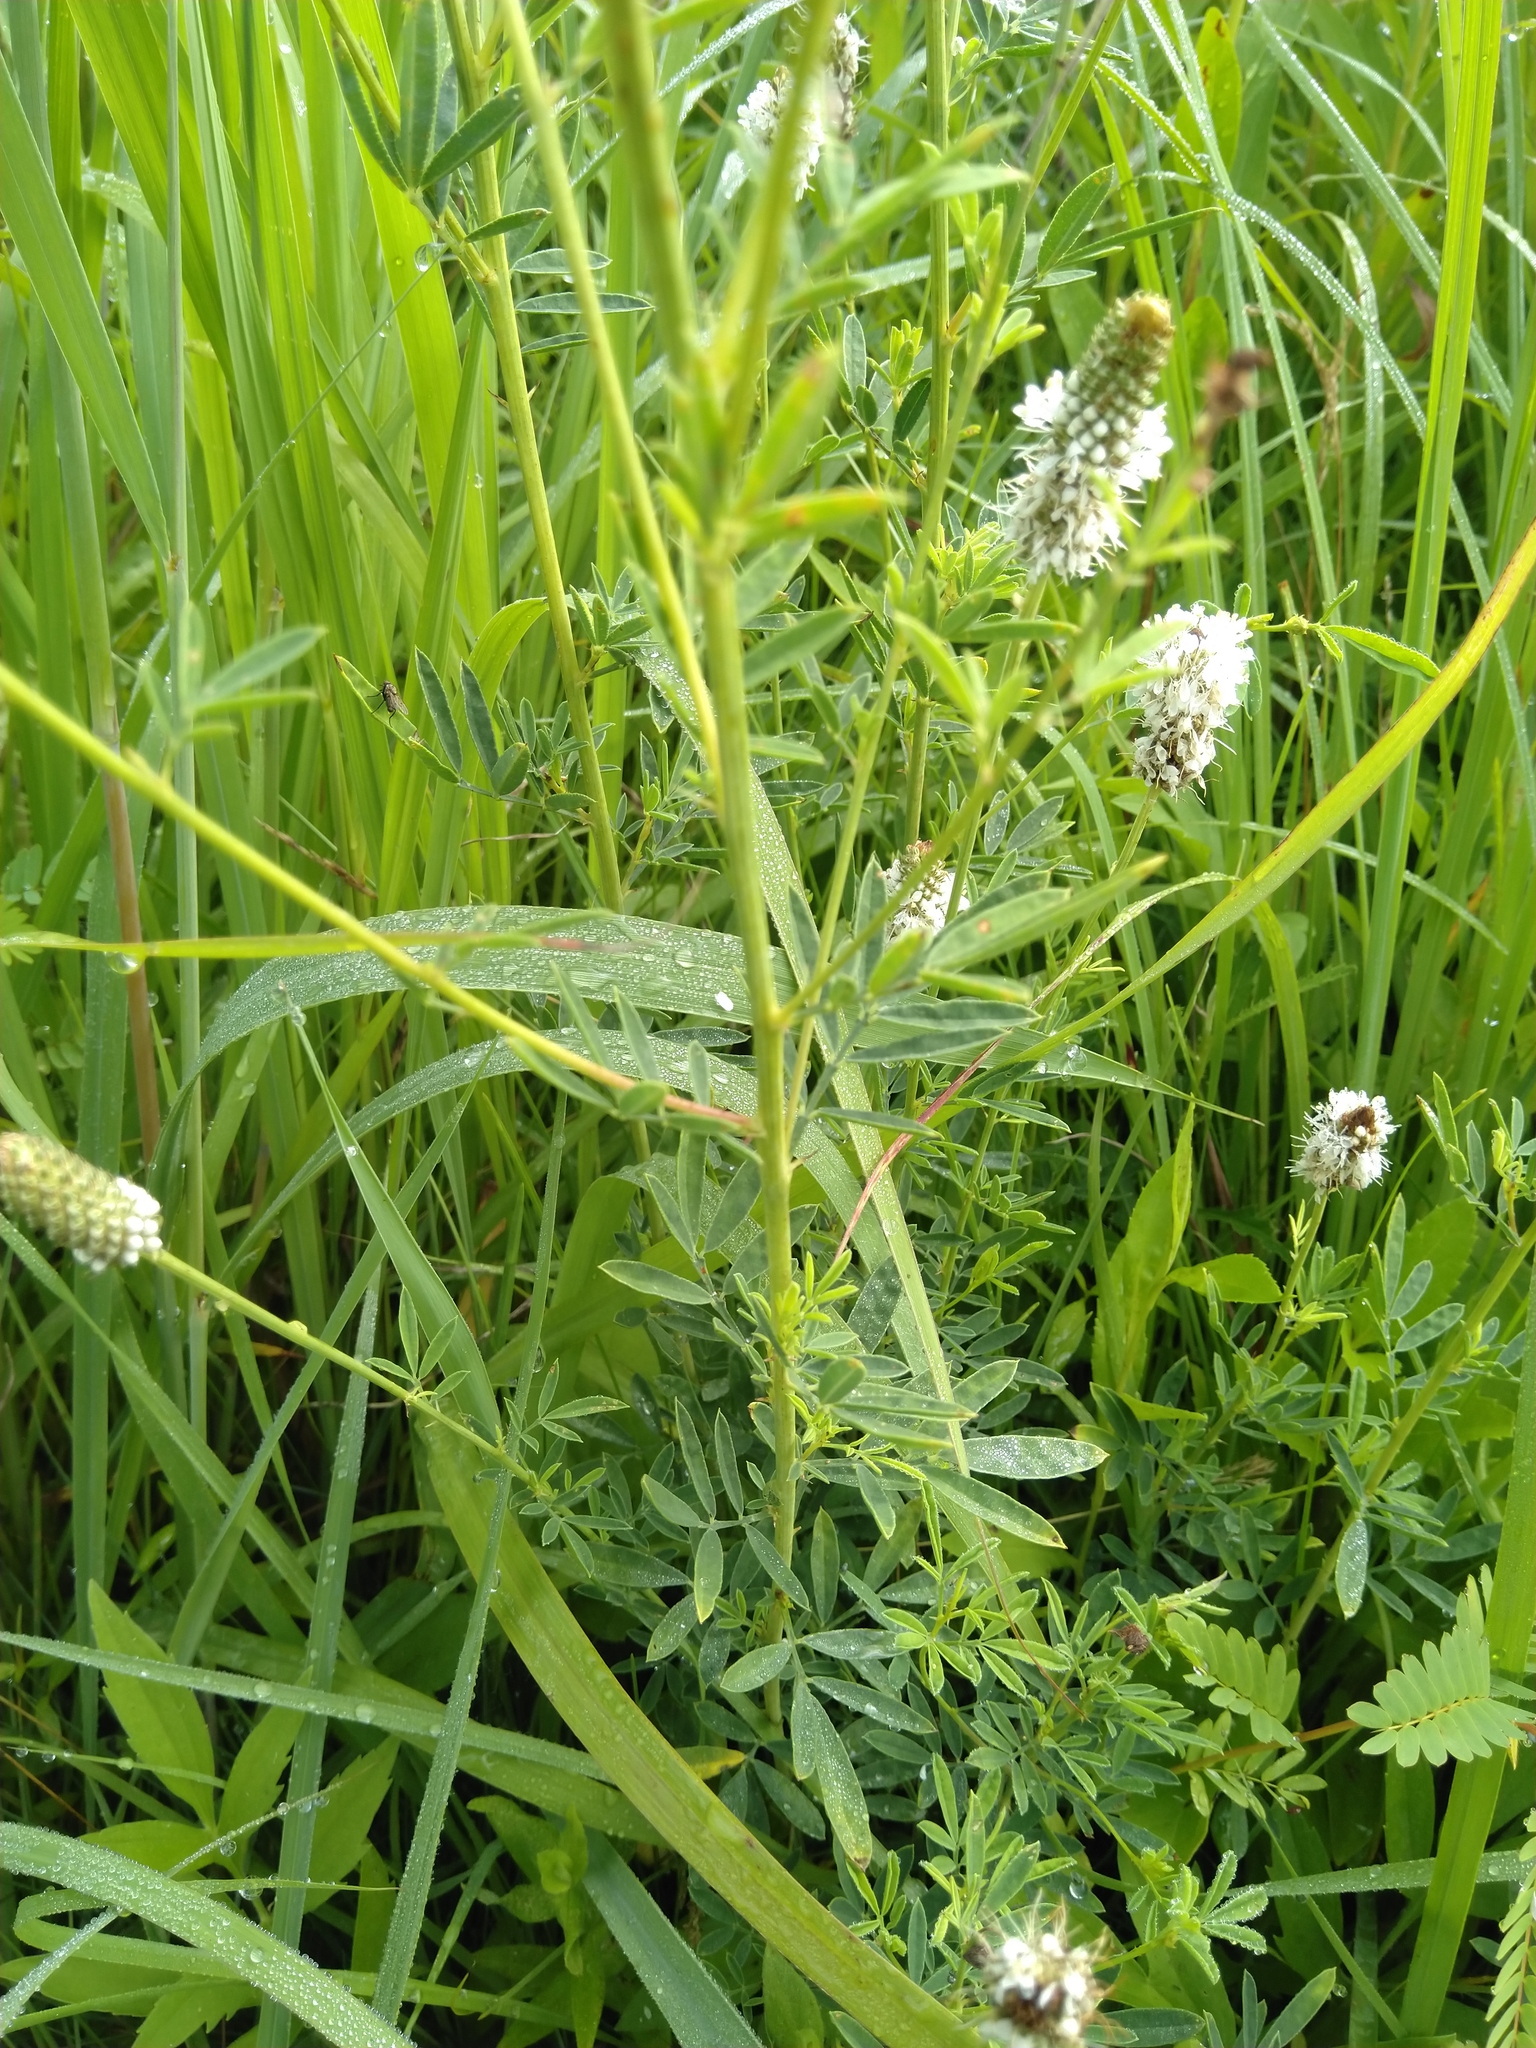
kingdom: Plantae
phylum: Tracheophyta
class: Magnoliopsida
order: Fabales
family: Fabaceae
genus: Dalea
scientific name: Dalea candida
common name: White prairie-clover
